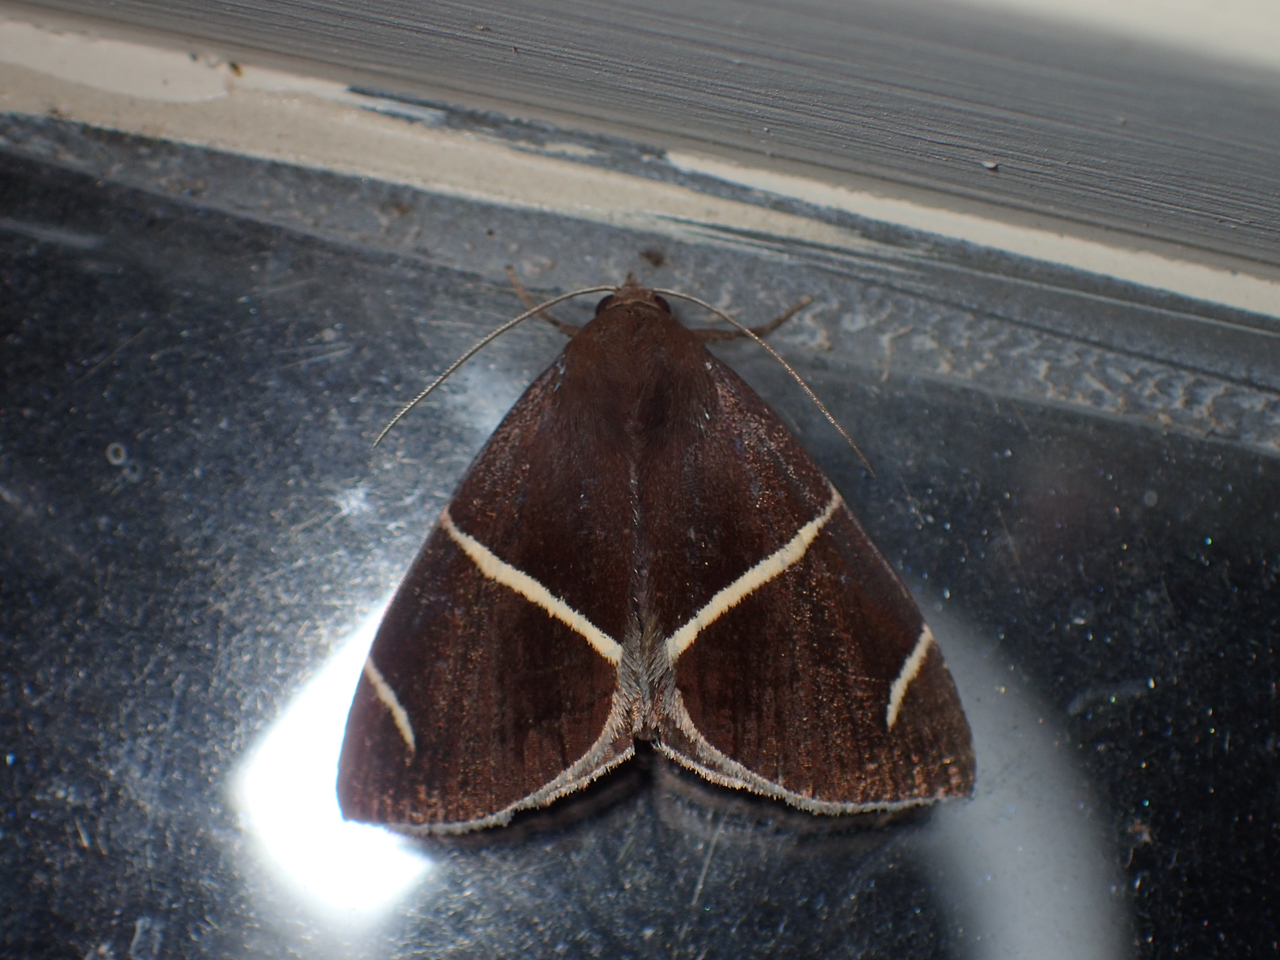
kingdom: Animalia
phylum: Arthropoda
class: Insecta
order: Lepidoptera
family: Erebidae
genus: Argyrostrotis
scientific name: Argyrostrotis anilis
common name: Short-lined chocolate
